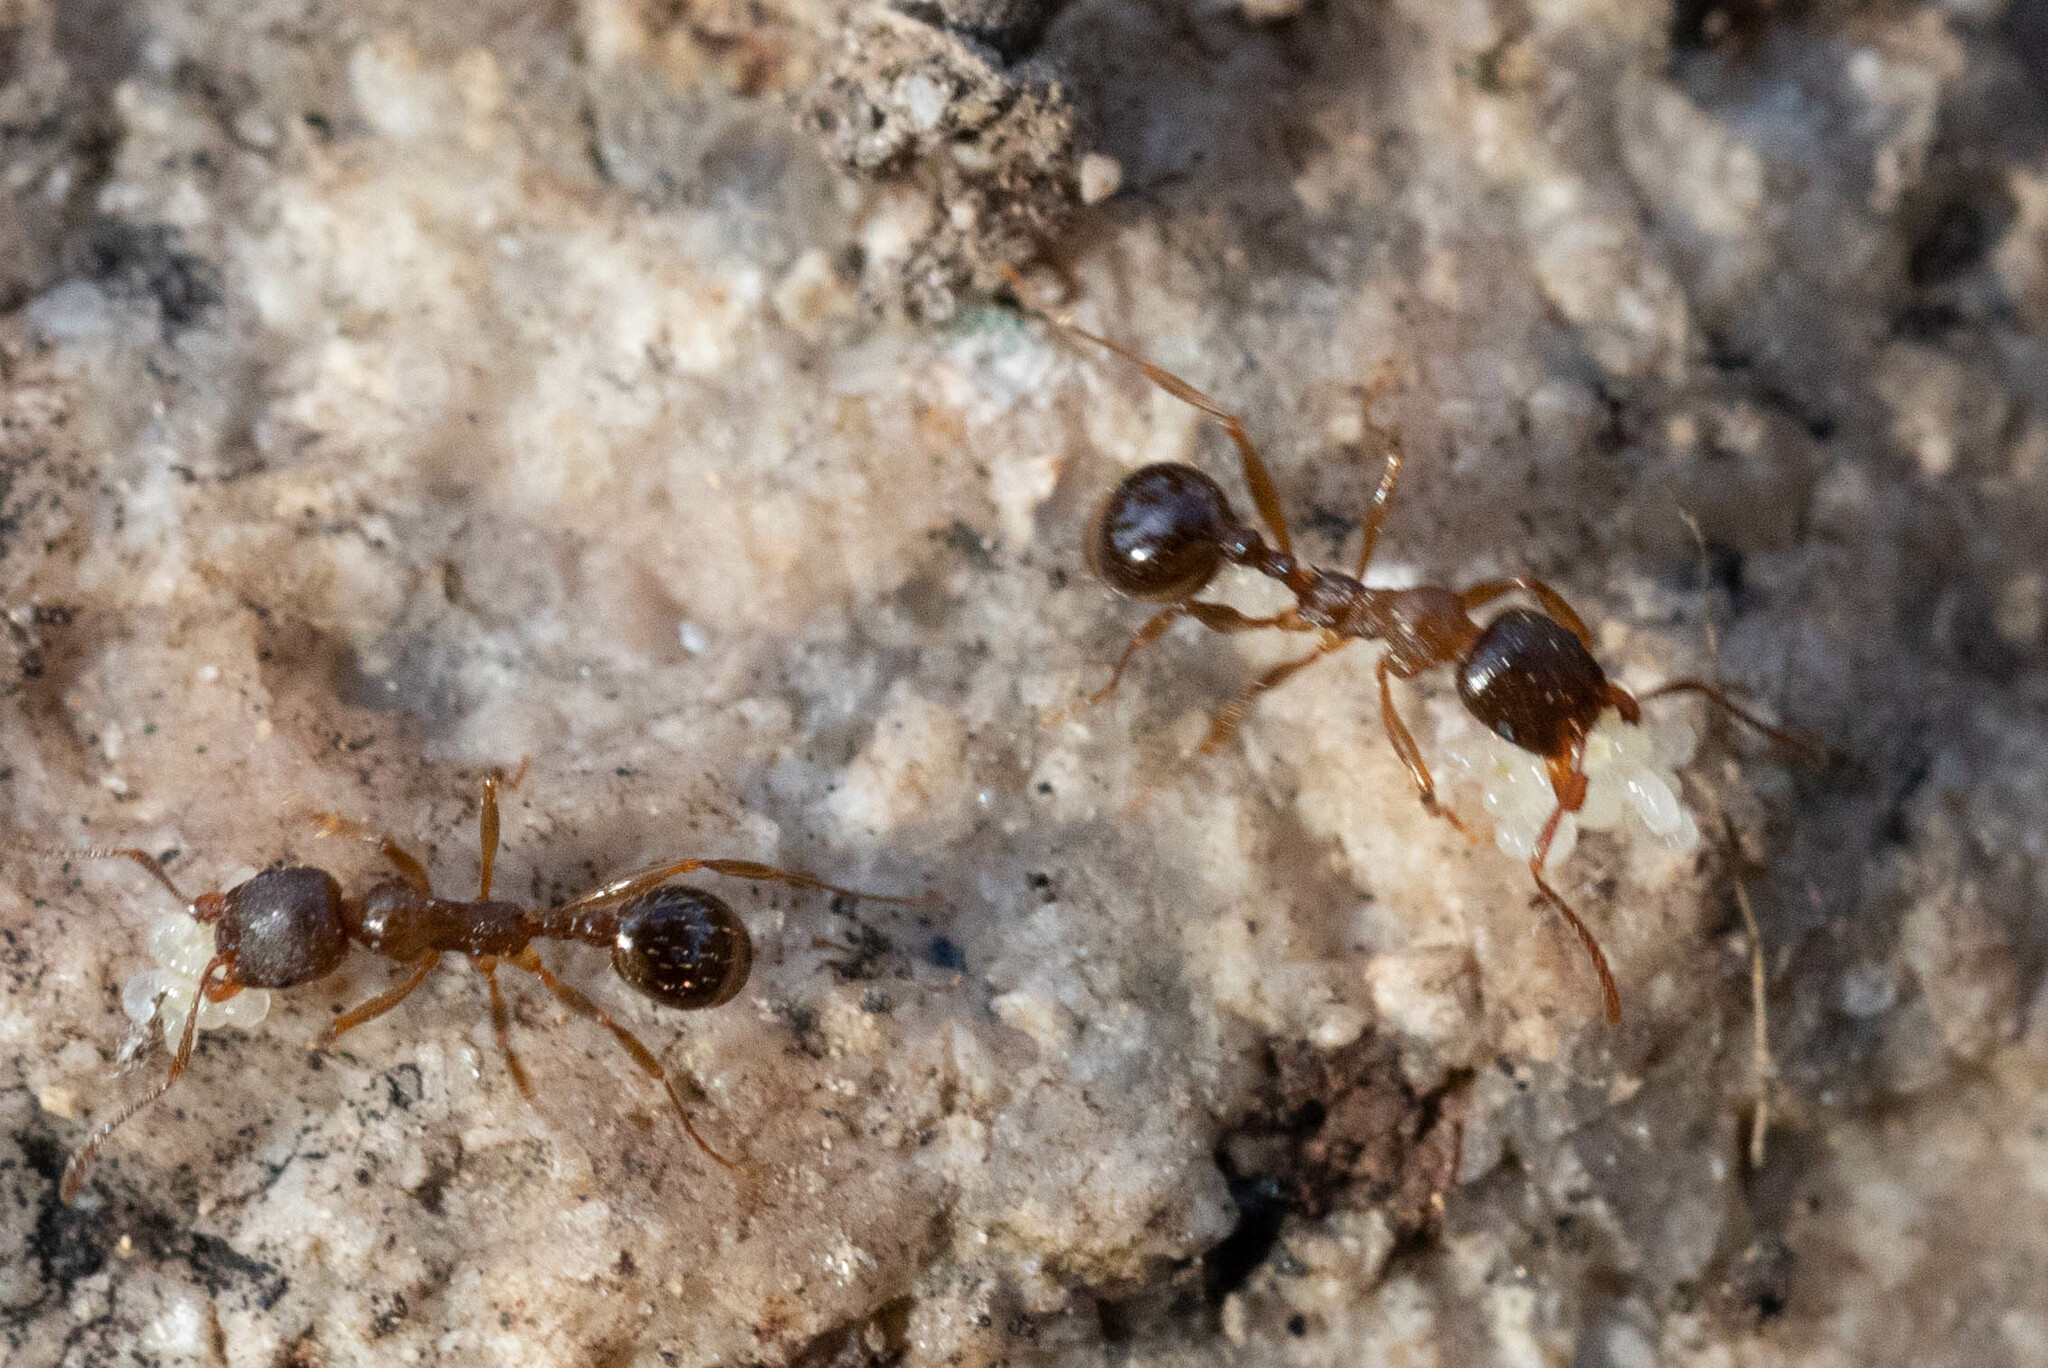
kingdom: Animalia
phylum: Arthropoda
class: Insecta
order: Hymenoptera
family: Formicidae
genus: Aphaenogaster
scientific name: Aphaenogaster occidentalis
